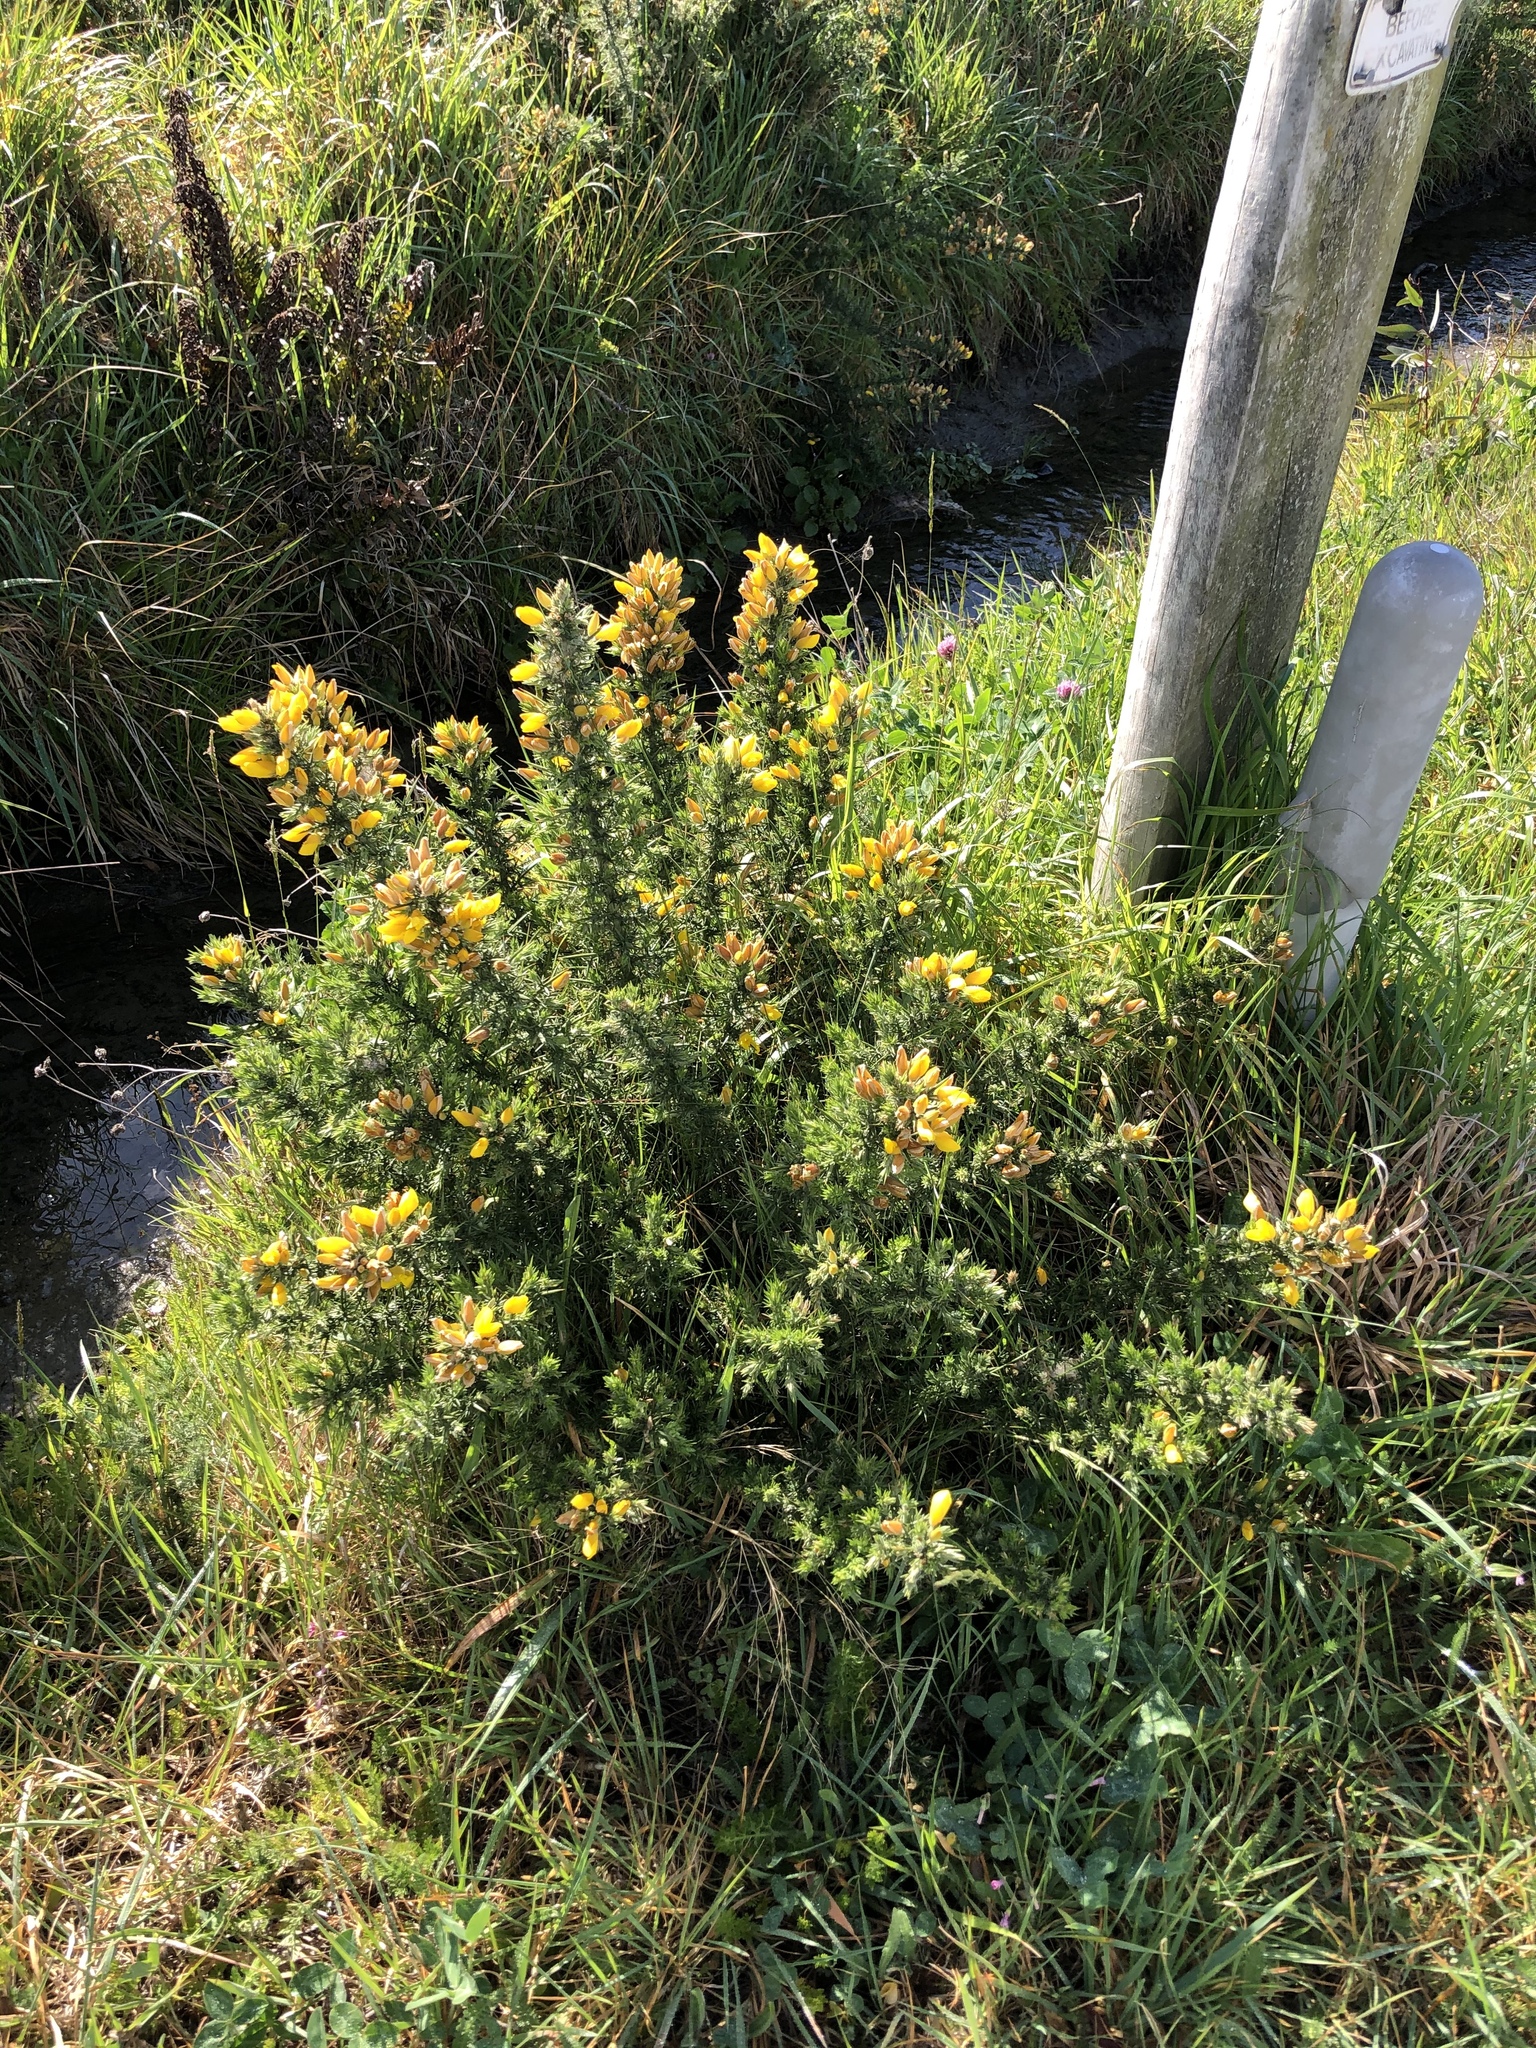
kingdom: Plantae
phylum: Tracheophyta
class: Magnoliopsida
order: Fabales
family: Fabaceae
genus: Ulex
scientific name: Ulex europaeus
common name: Common gorse
